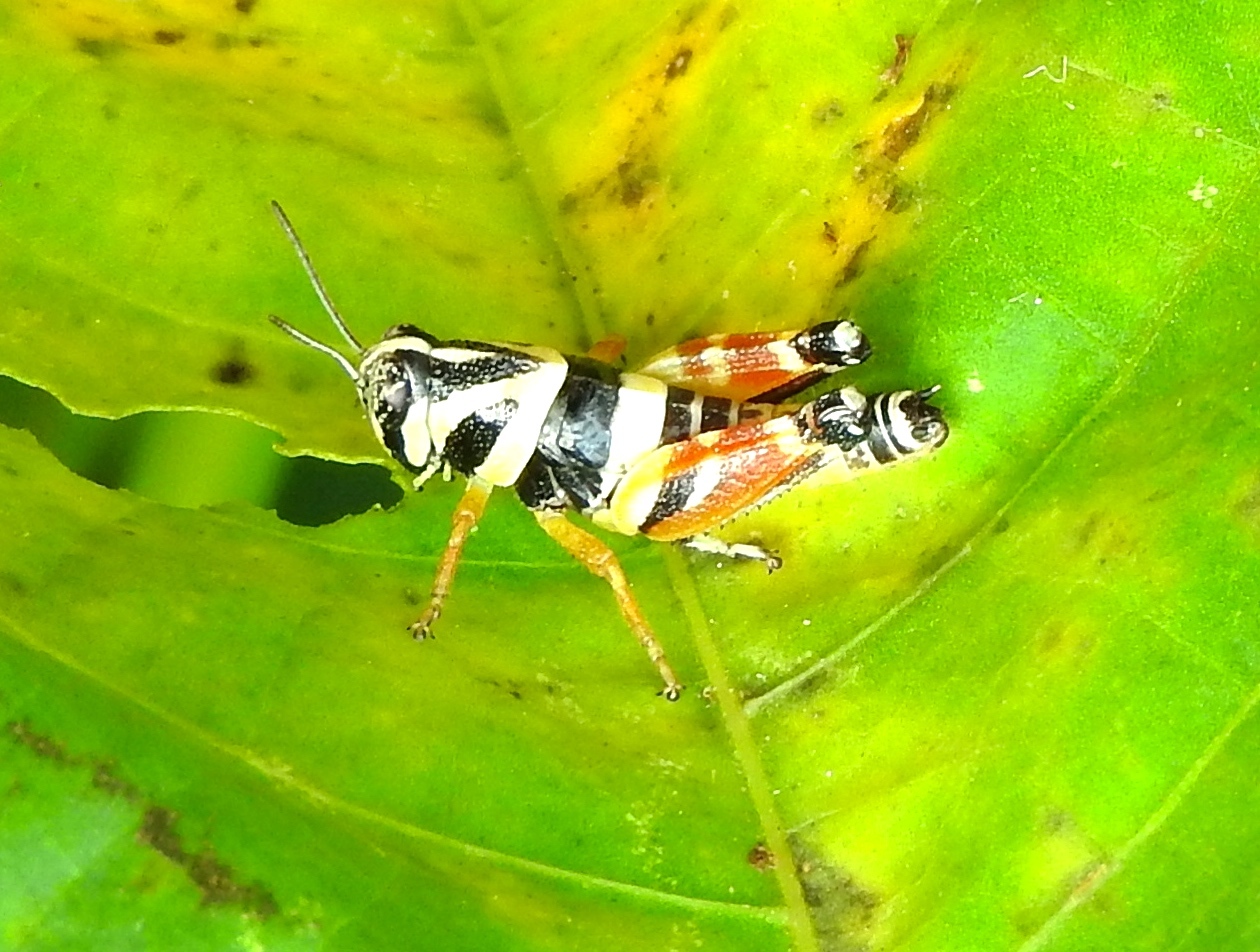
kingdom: Animalia
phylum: Arthropoda
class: Insecta
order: Orthoptera
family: Acrididae
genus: Aidemona
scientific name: Aidemona azteca
